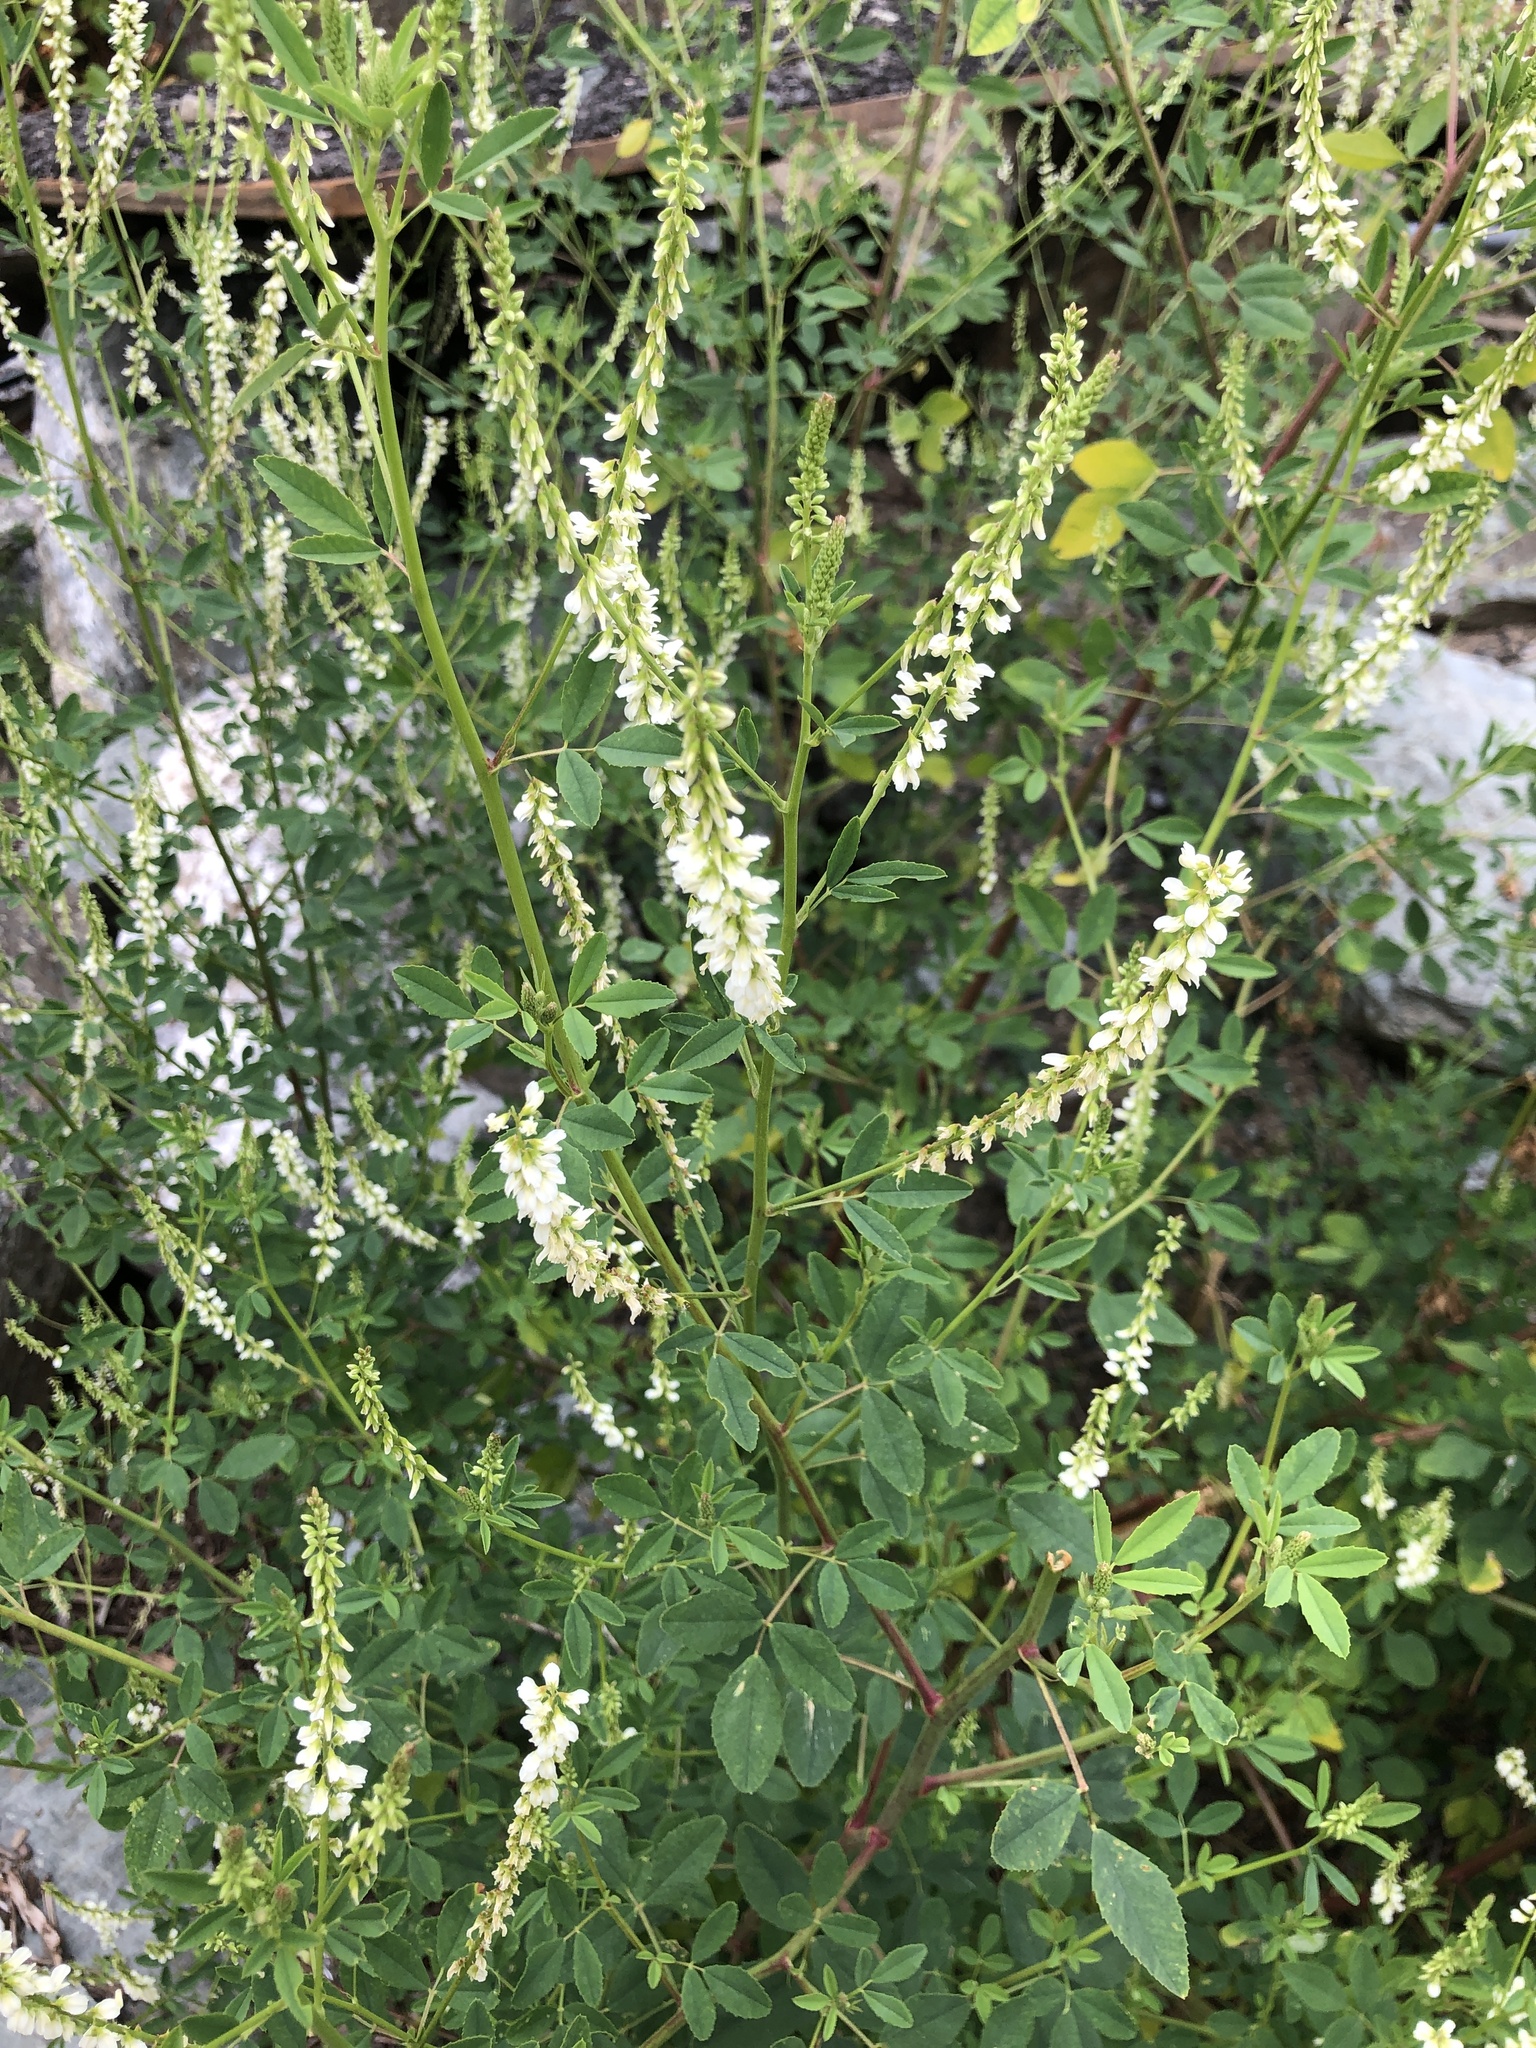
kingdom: Plantae
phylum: Tracheophyta
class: Magnoliopsida
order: Fabales
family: Fabaceae
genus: Melilotus
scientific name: Melilotus albus
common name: White melilot
